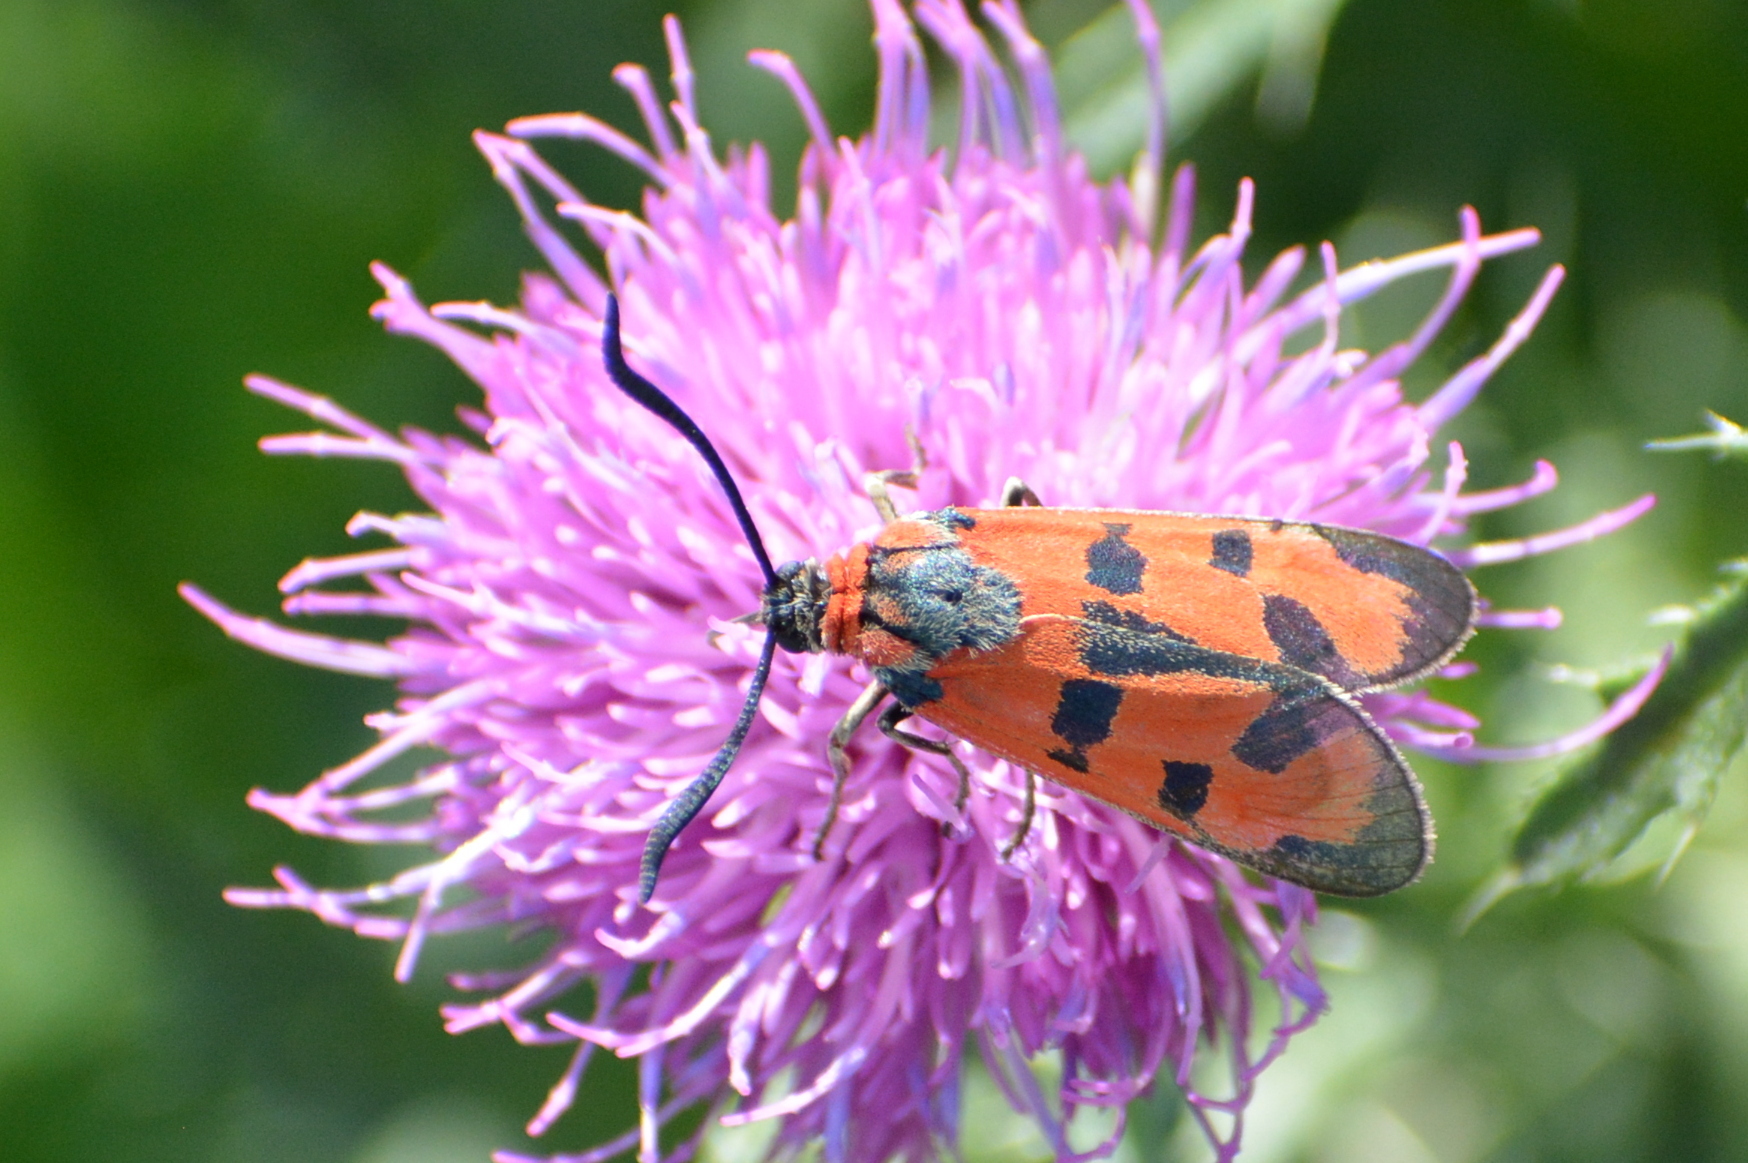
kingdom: Animalia
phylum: Arthropoda
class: Insecta
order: Lepidoptera
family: Zygaenidae
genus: Zygaena
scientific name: Zygaena laeta
